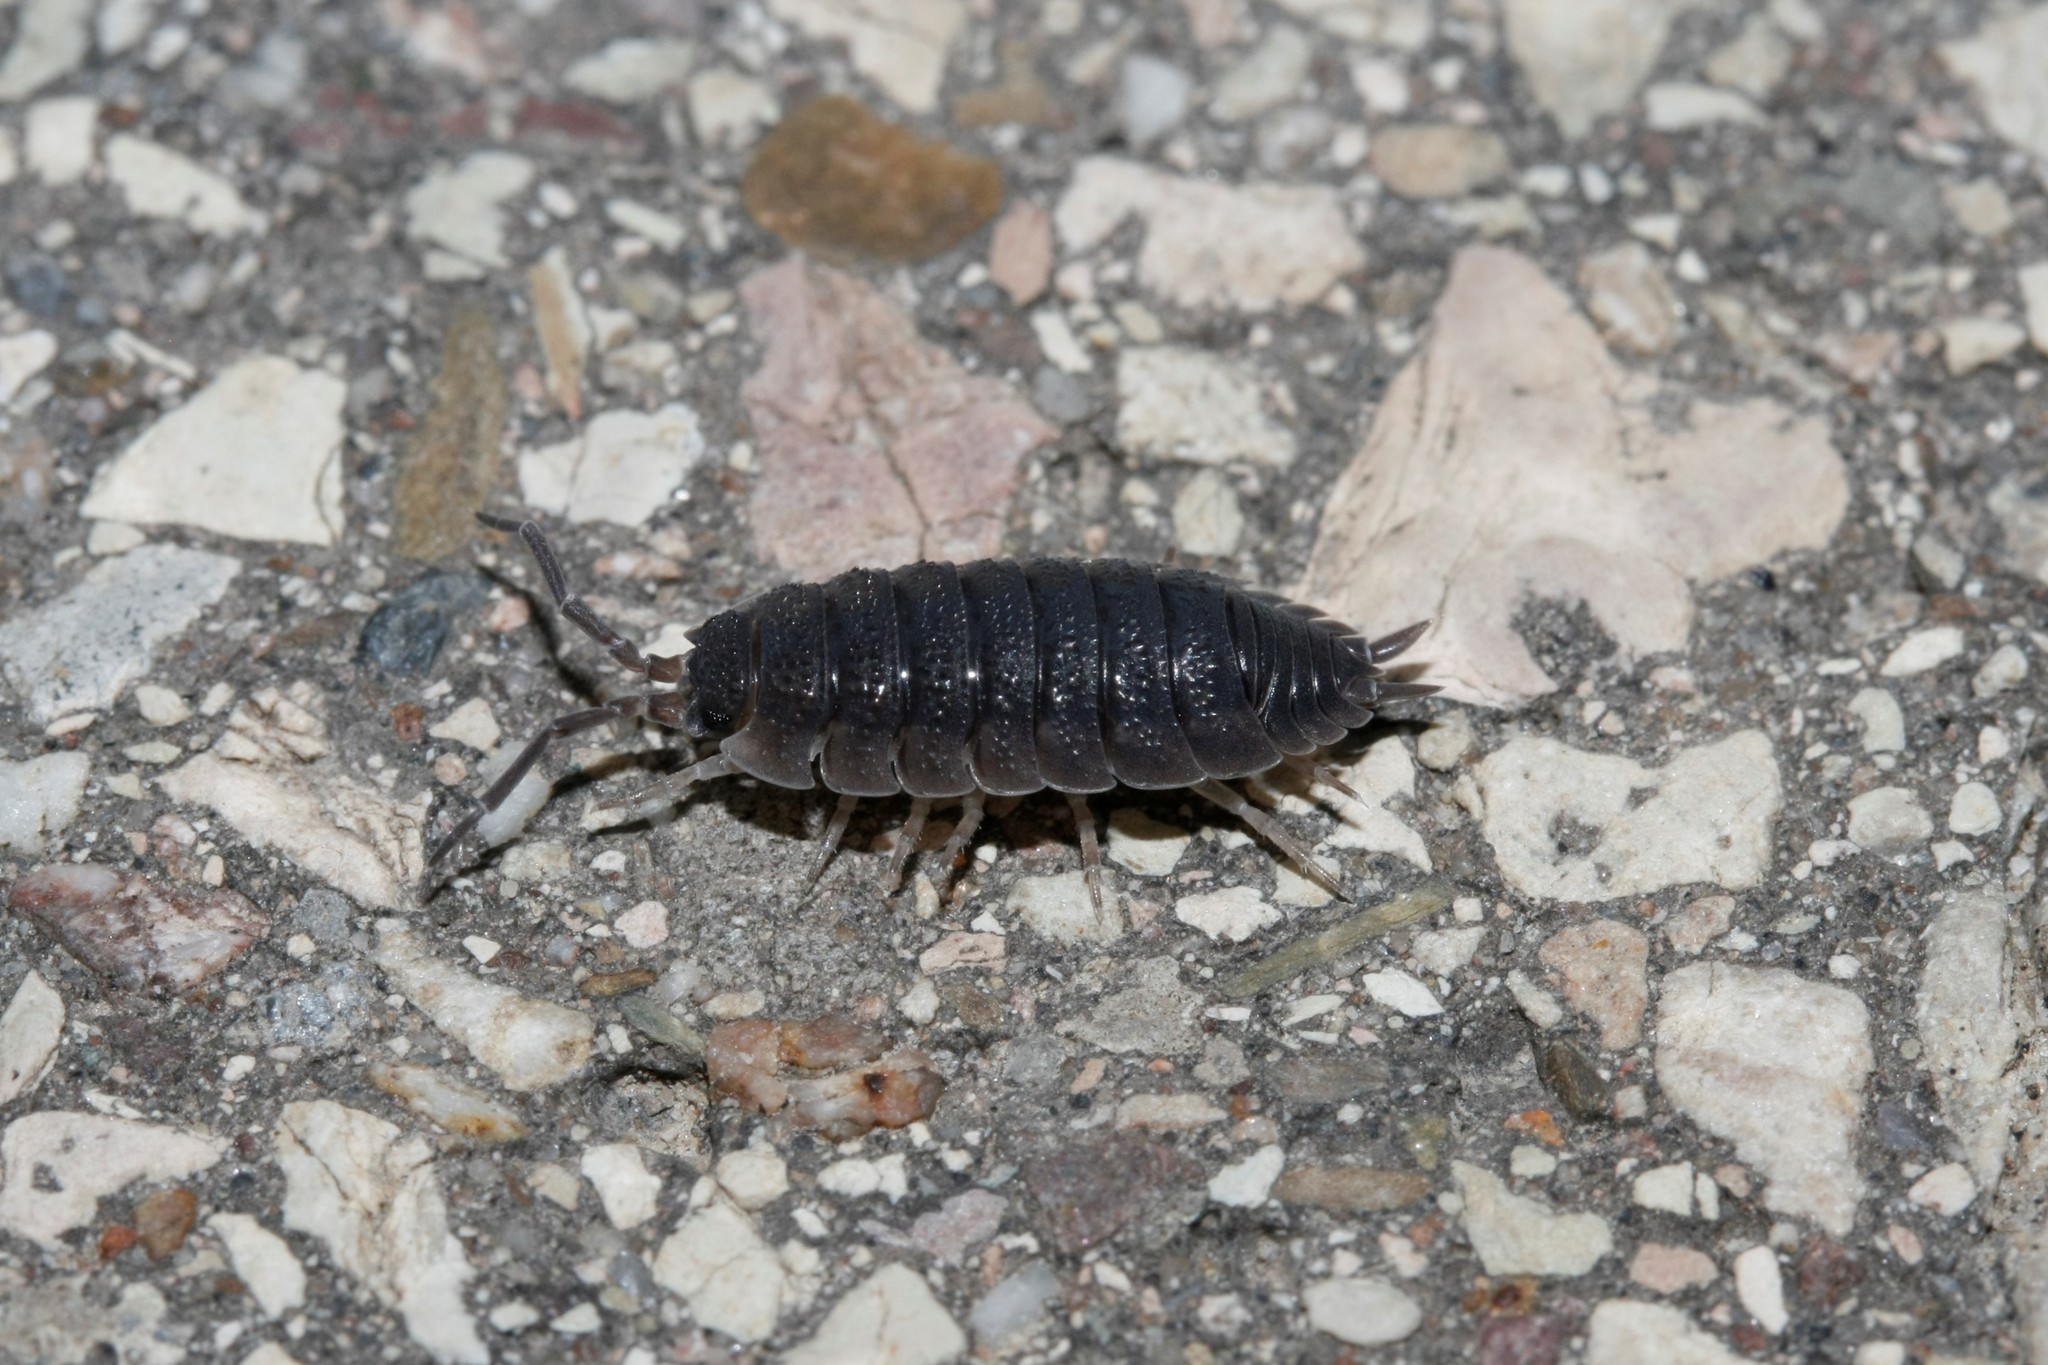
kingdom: Animalia
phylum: Arthropoda
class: Malacostraca
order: Isopoda
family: Porcellionidae
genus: Porcellio
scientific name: Porcellio scaber
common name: Common rough woodlouse
